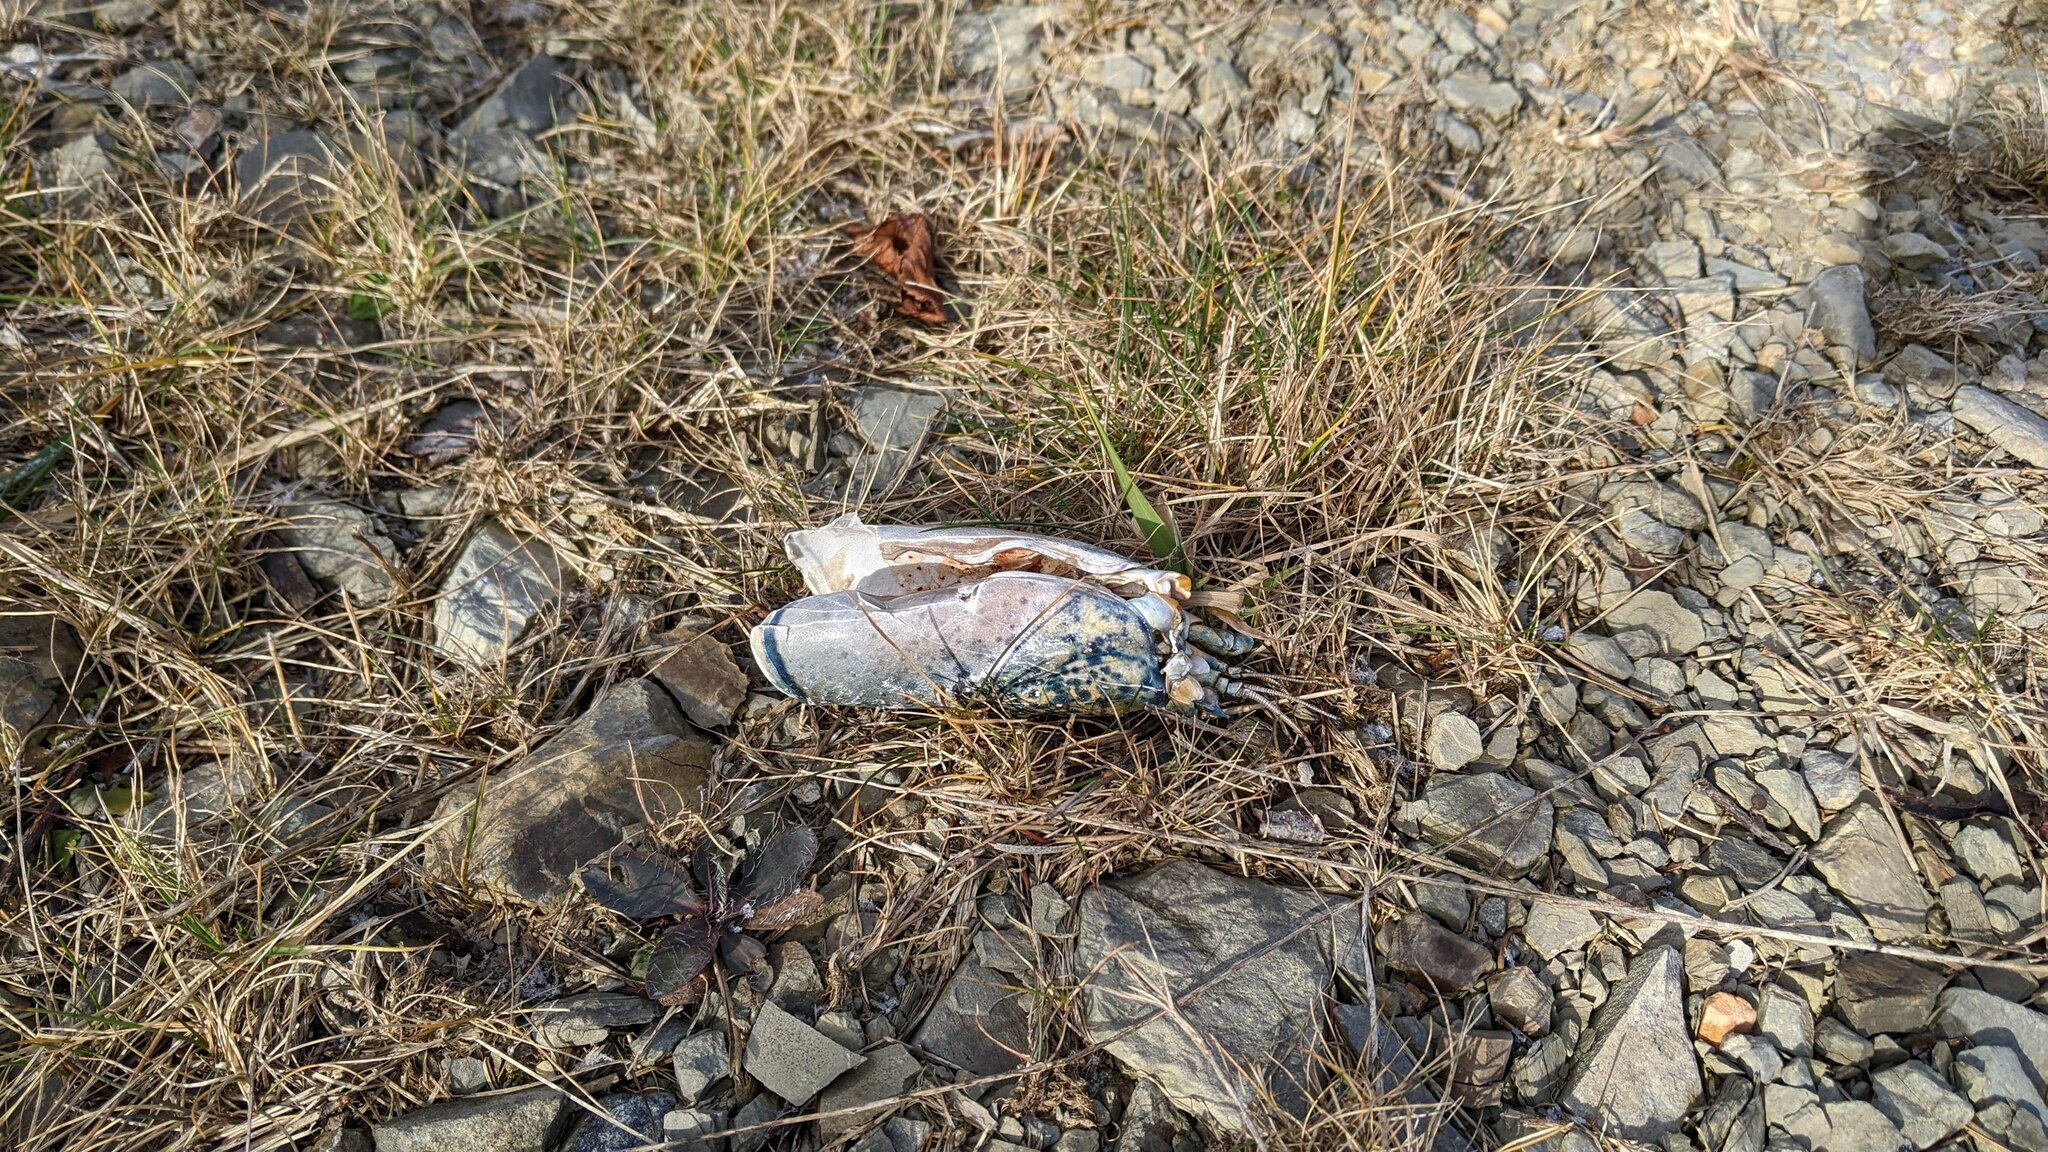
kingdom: Animalia
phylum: Arthropoda
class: Malacostraca
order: Decapoda
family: Nephropidae
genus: Homarus
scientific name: Homarus americanus
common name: American lobster
